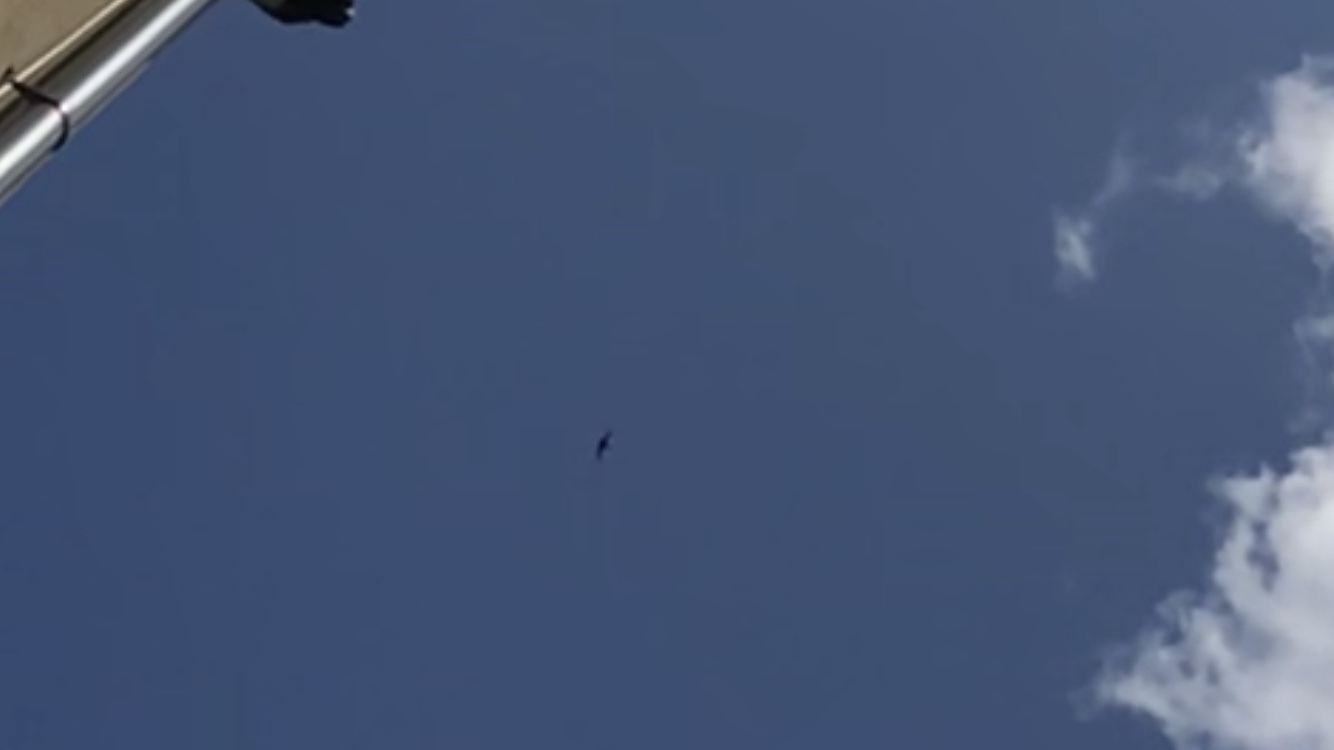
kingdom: Animalia
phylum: Chordata
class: Aves
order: Apodiformes
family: Apodidae
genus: Apus
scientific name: Apus apus
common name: Common swift
